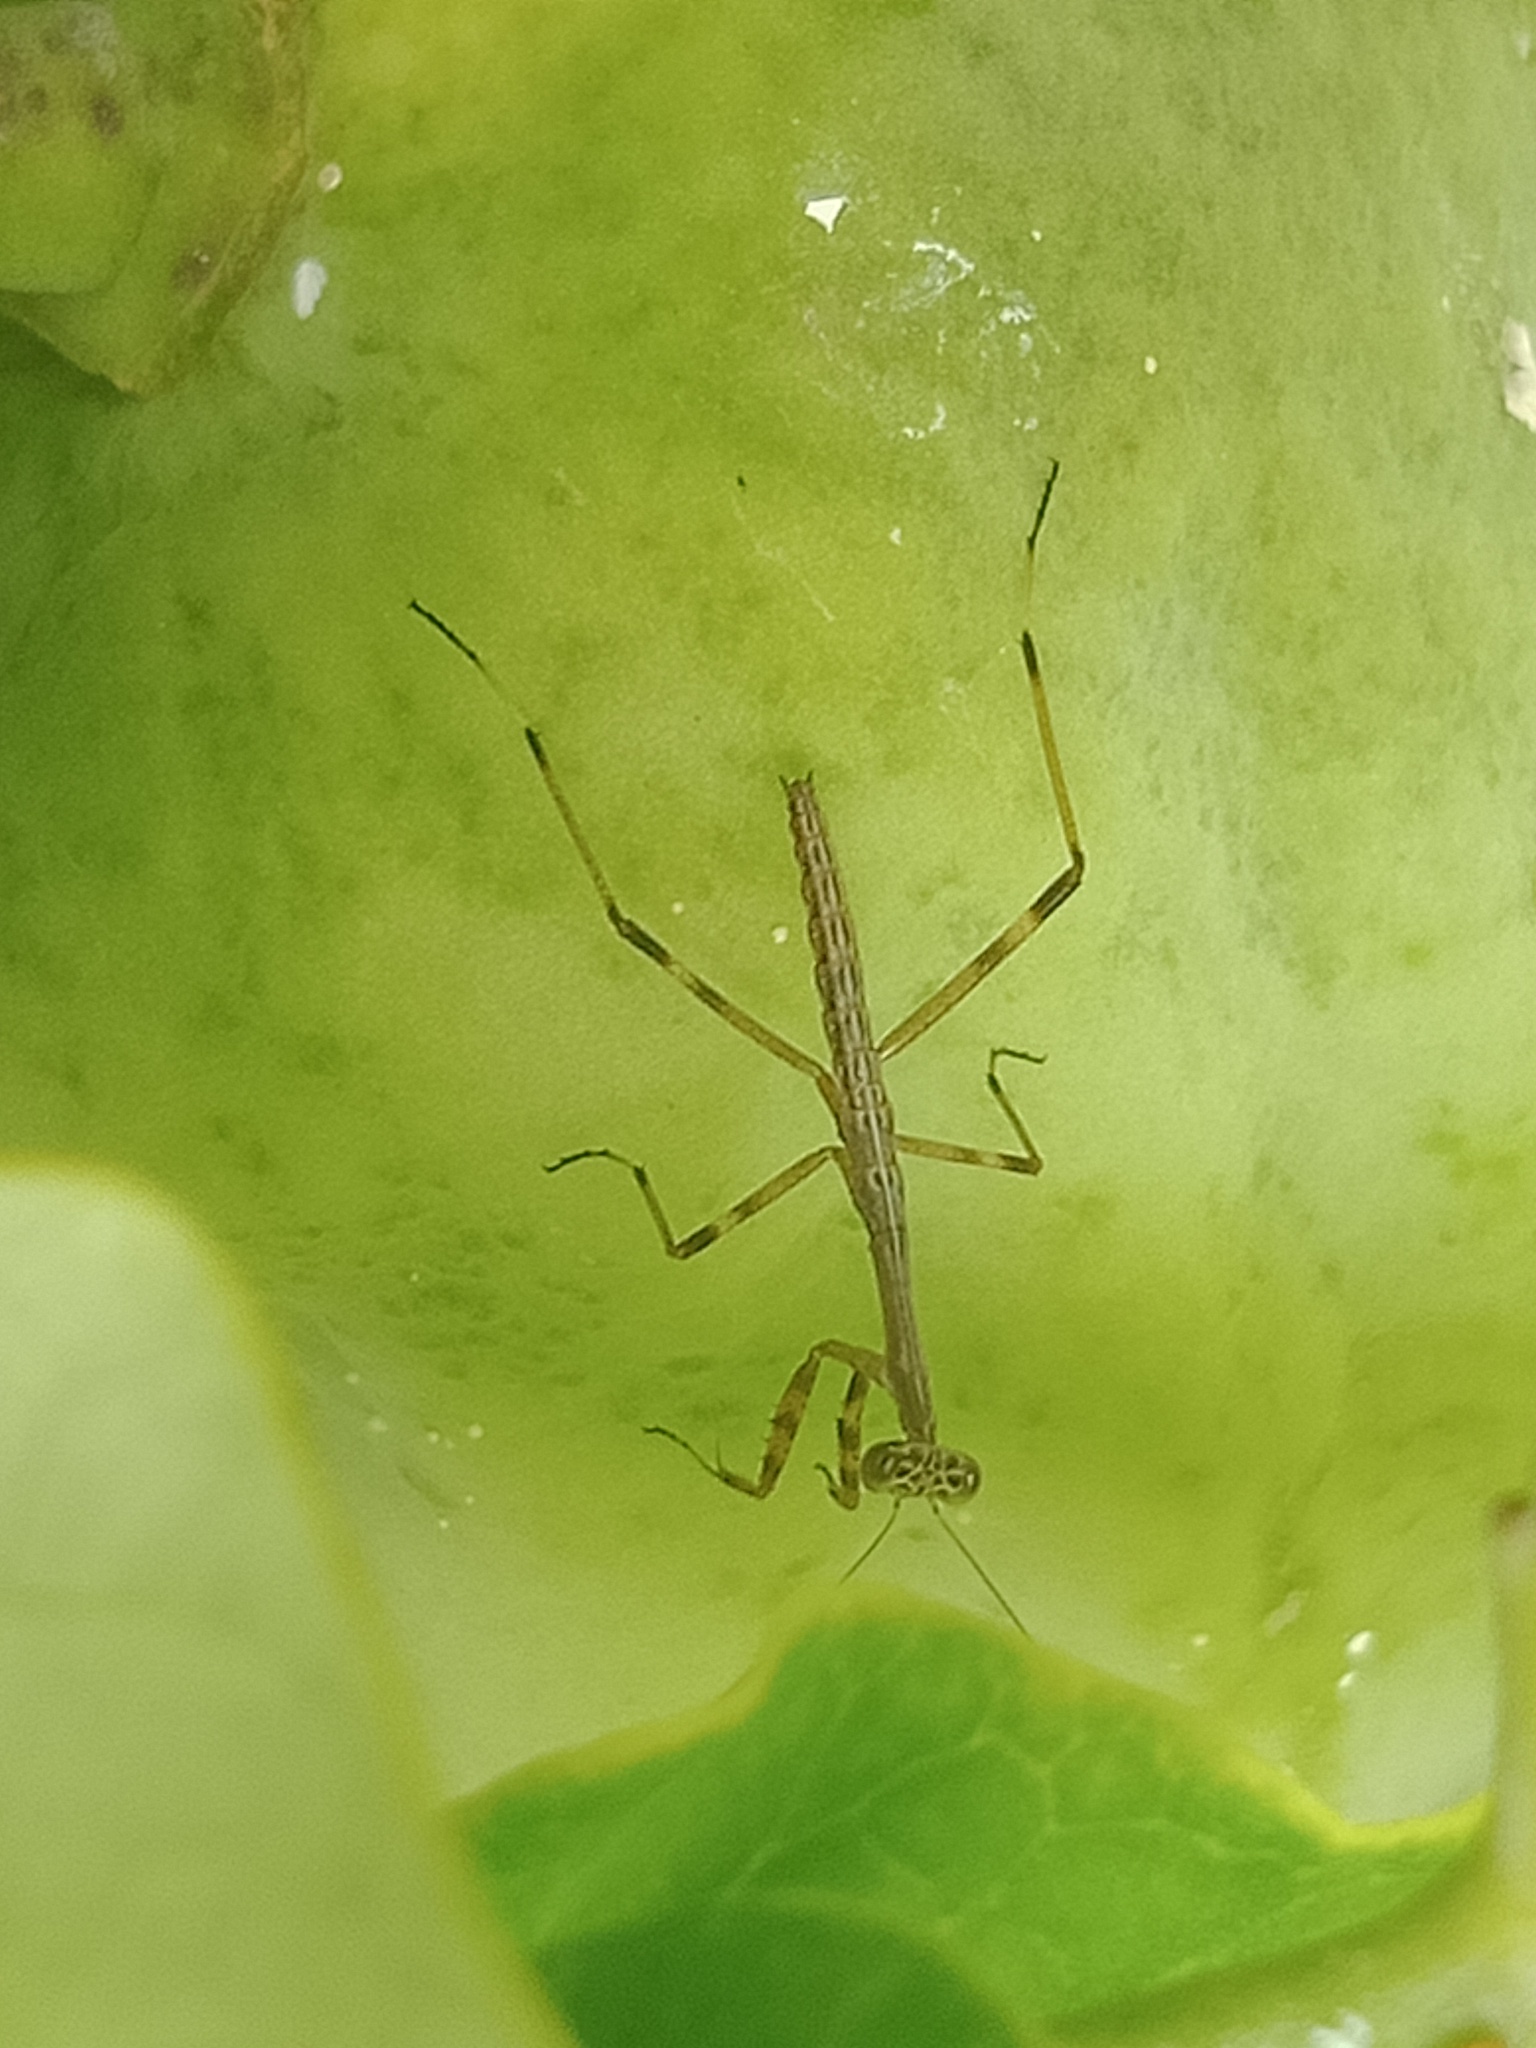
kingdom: Plantae
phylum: Tracheophyta
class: Magnoliopsida
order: Gentianales
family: Apocynaceae
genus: Araujia
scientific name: Araujia sericifera
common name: White bladderflower
